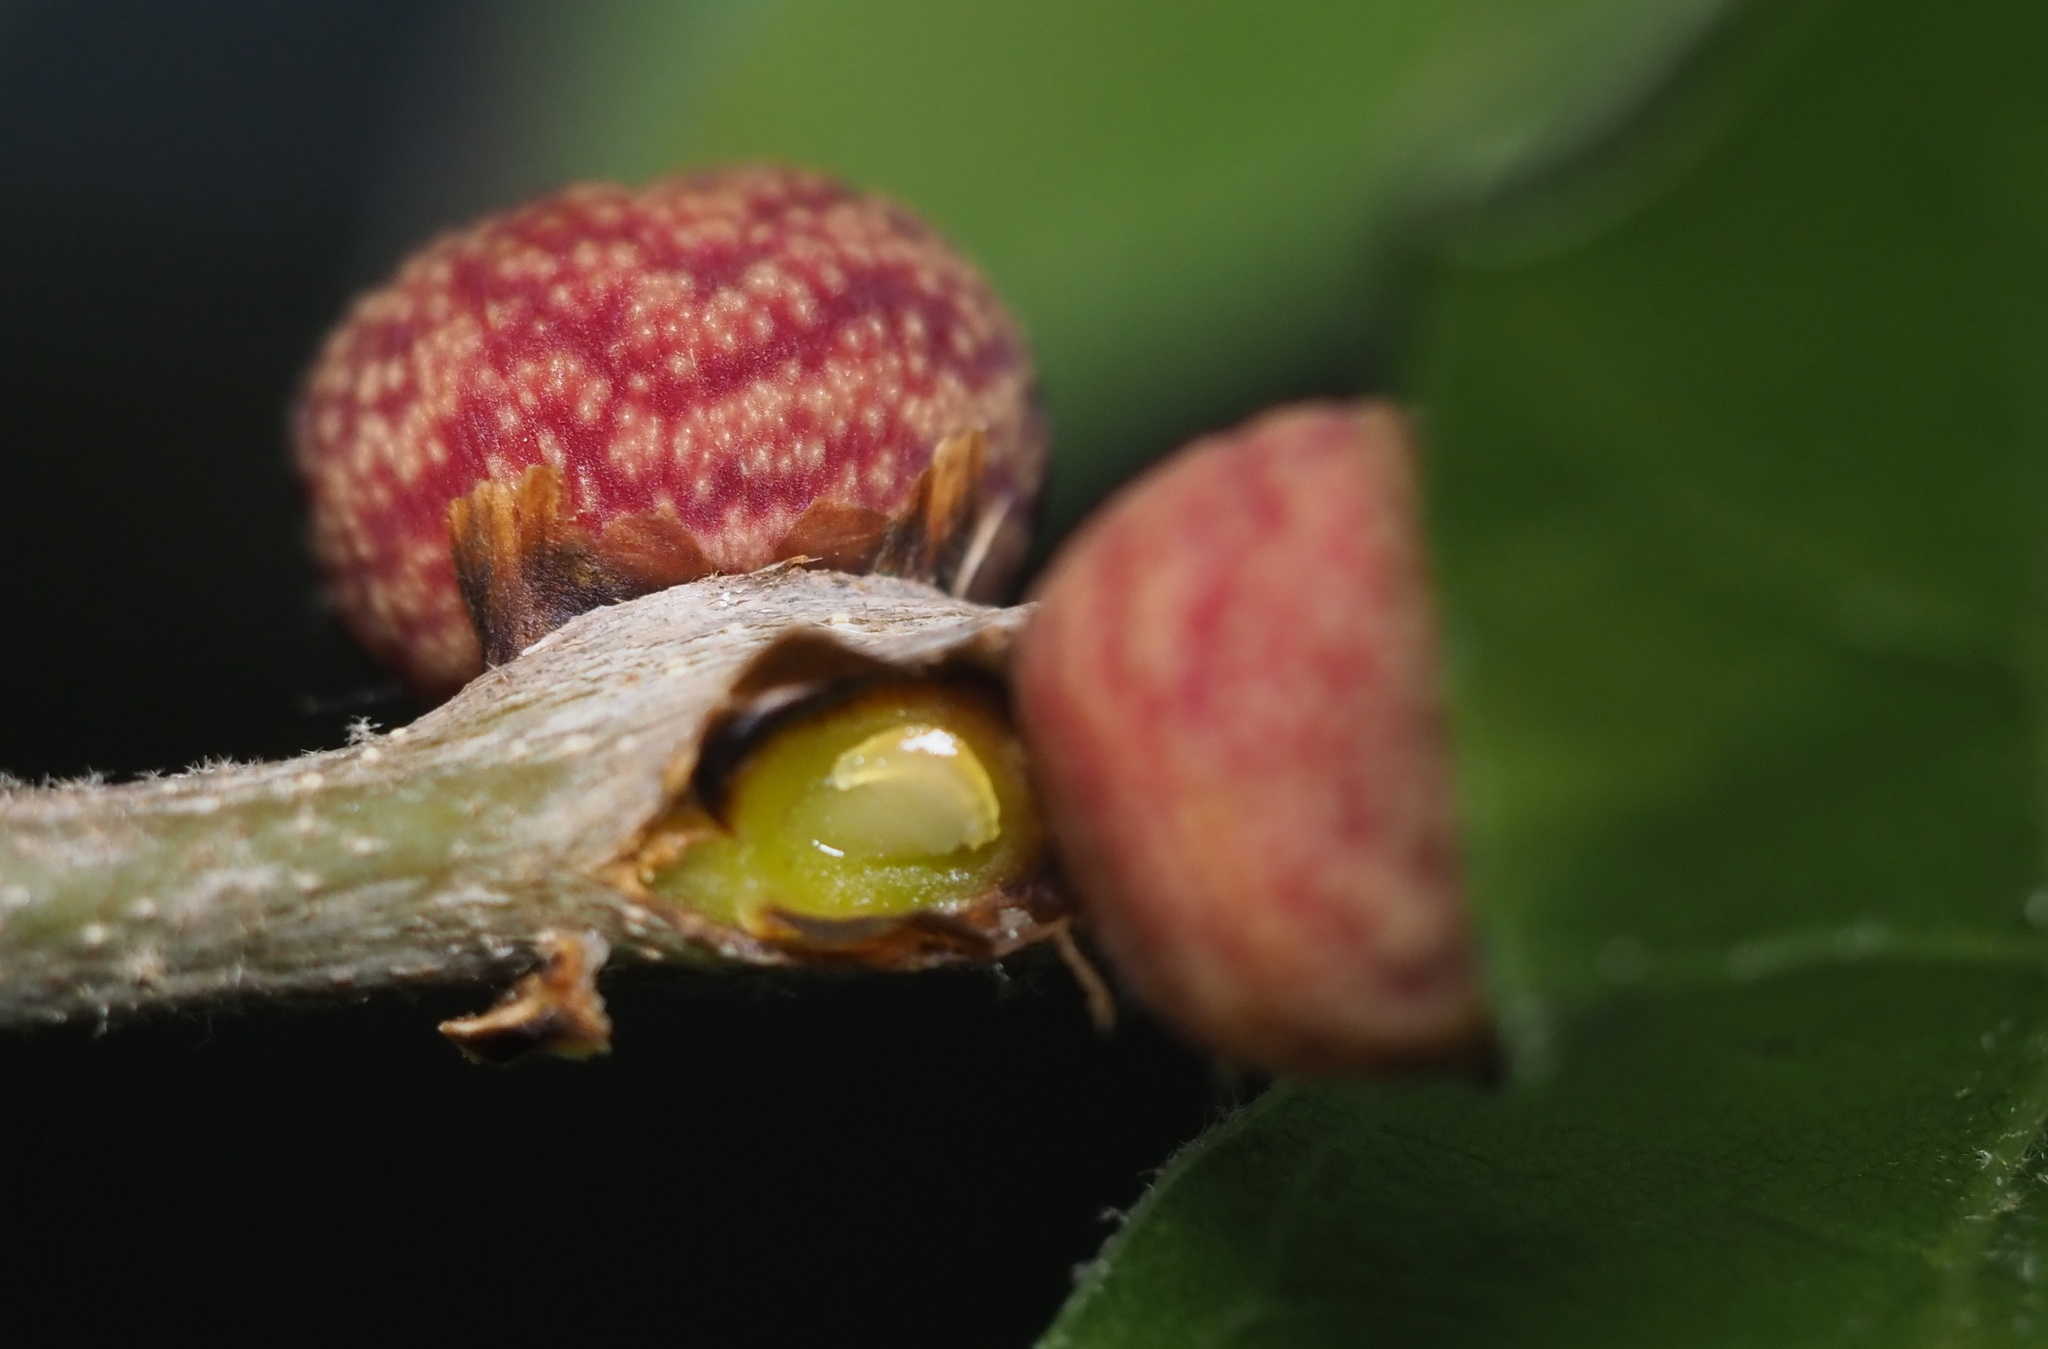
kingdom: Animalia
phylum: Arthropoda
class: Insecta
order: Hymenoptera
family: Cynipidae
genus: Kokkocynips
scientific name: Kokkocynips imbricariae
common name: Banded bullet gall wasp
